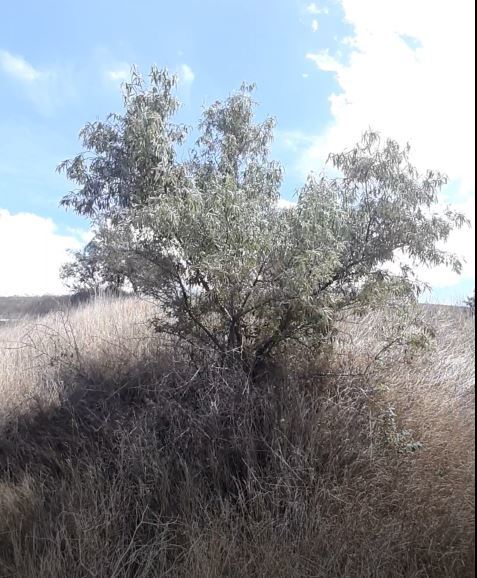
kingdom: Plantae
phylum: Tracheophyta
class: Magnoliopsida
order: Rosales
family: Elaeagnaceae
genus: Elaeagnus
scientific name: Elaeagnus angustifolia
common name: Russian olive
